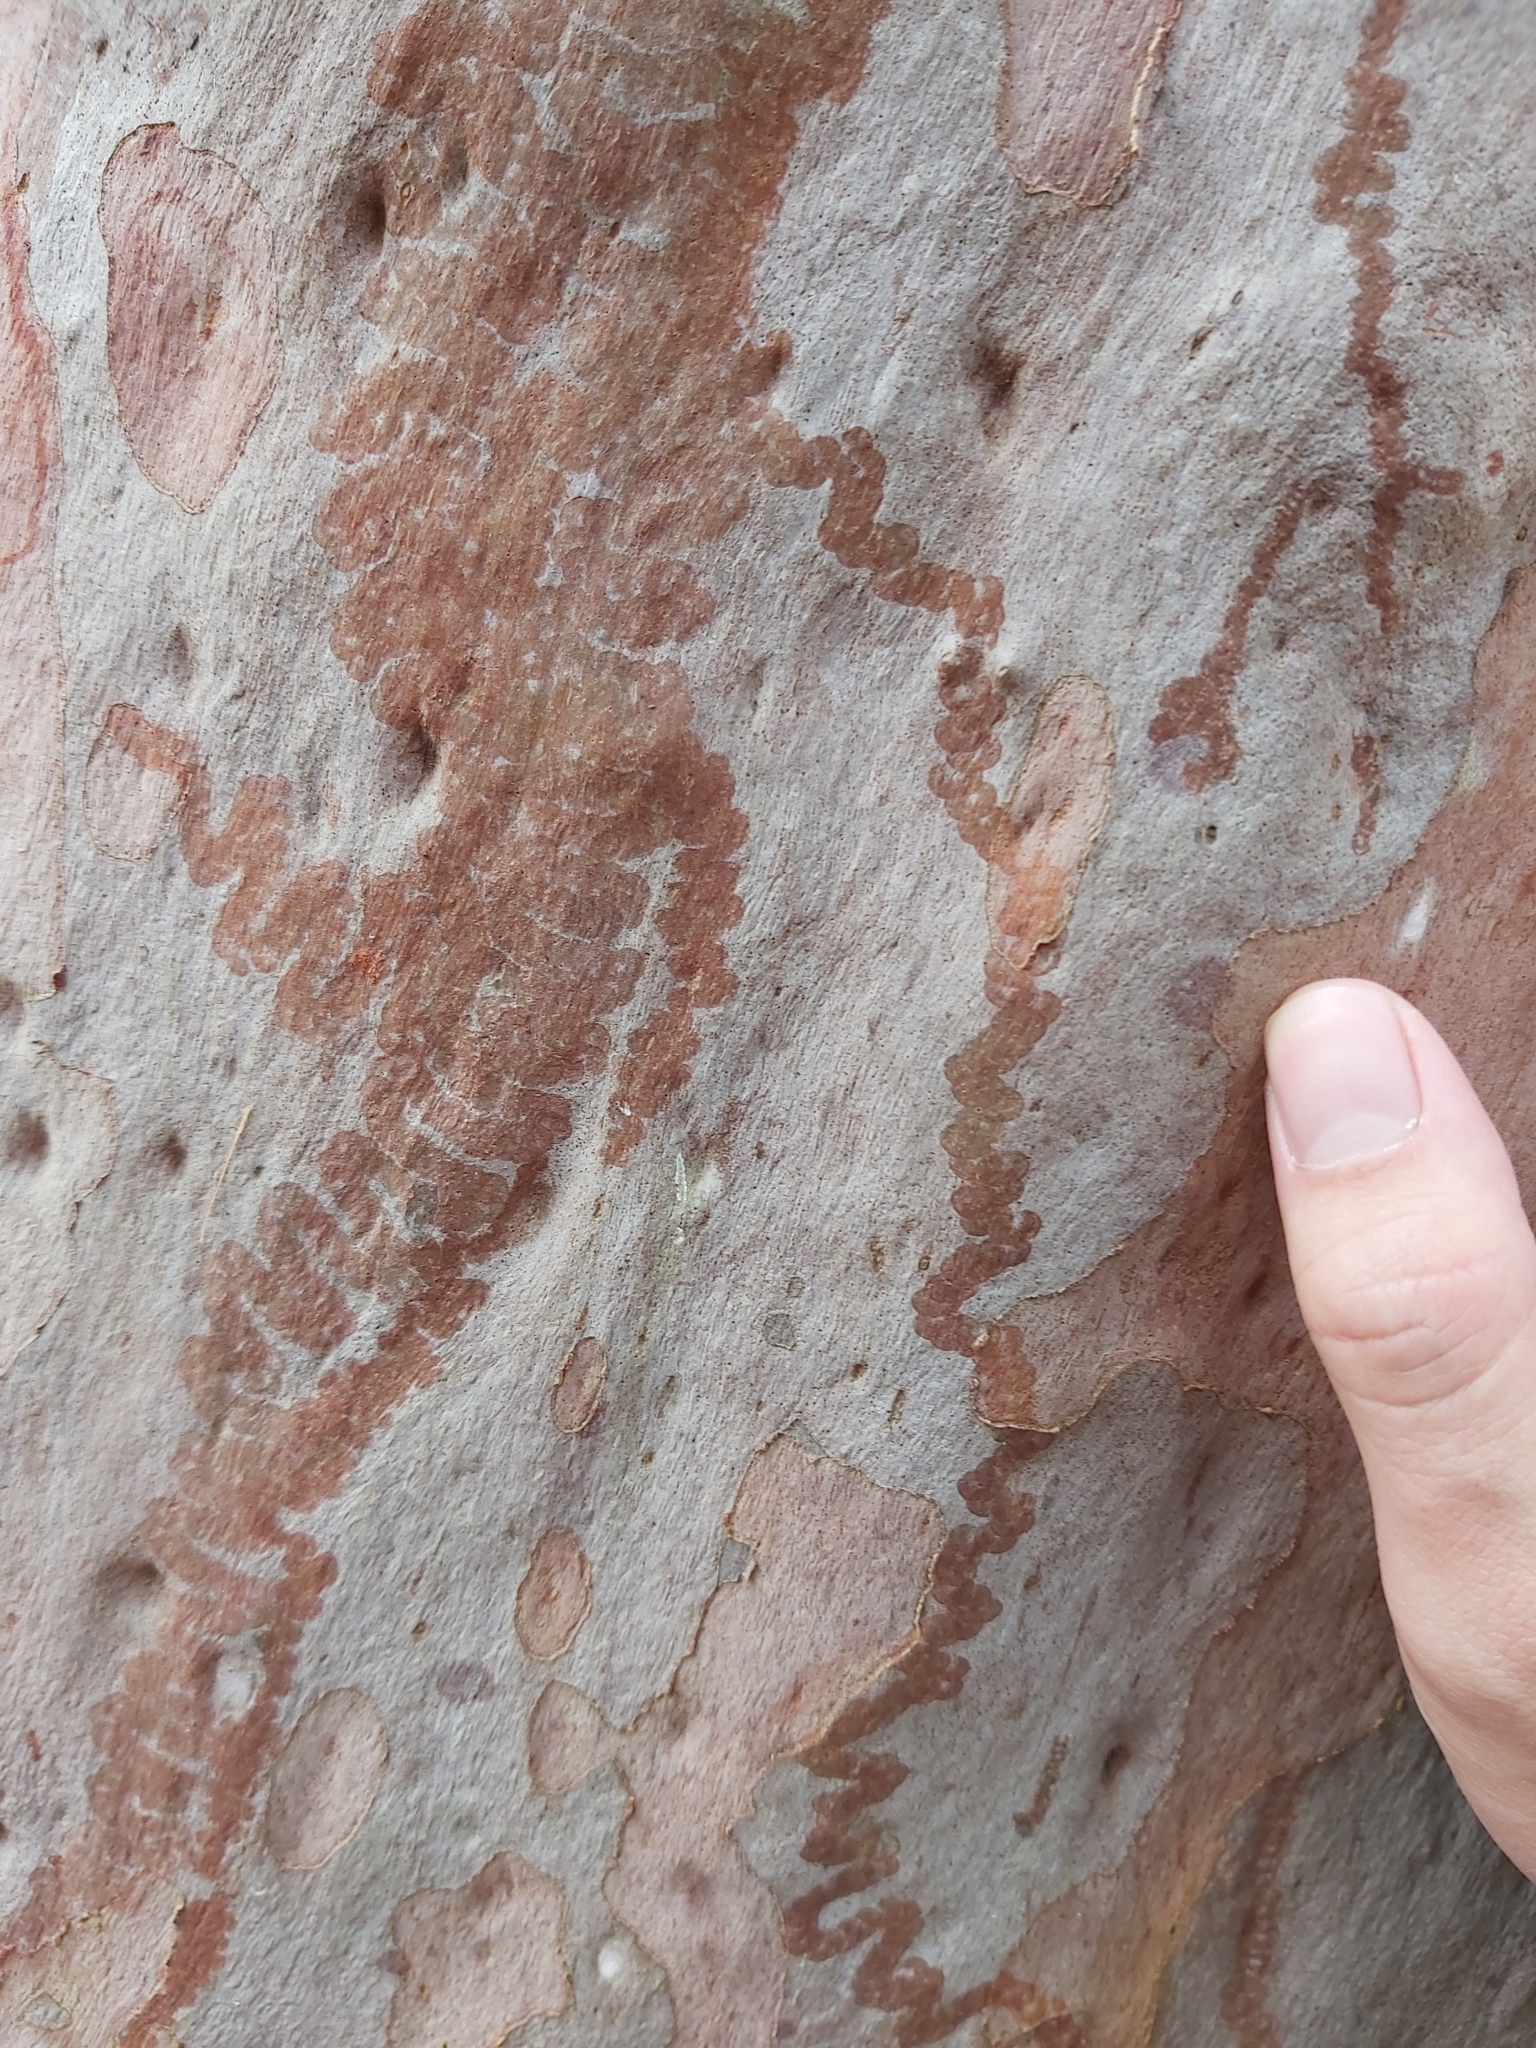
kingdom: Animalia
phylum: Mollusca
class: Gastropoda
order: Stylommatophora
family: Athoracophoridae
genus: Triboniophorus
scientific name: Triboniophorus graeffei
